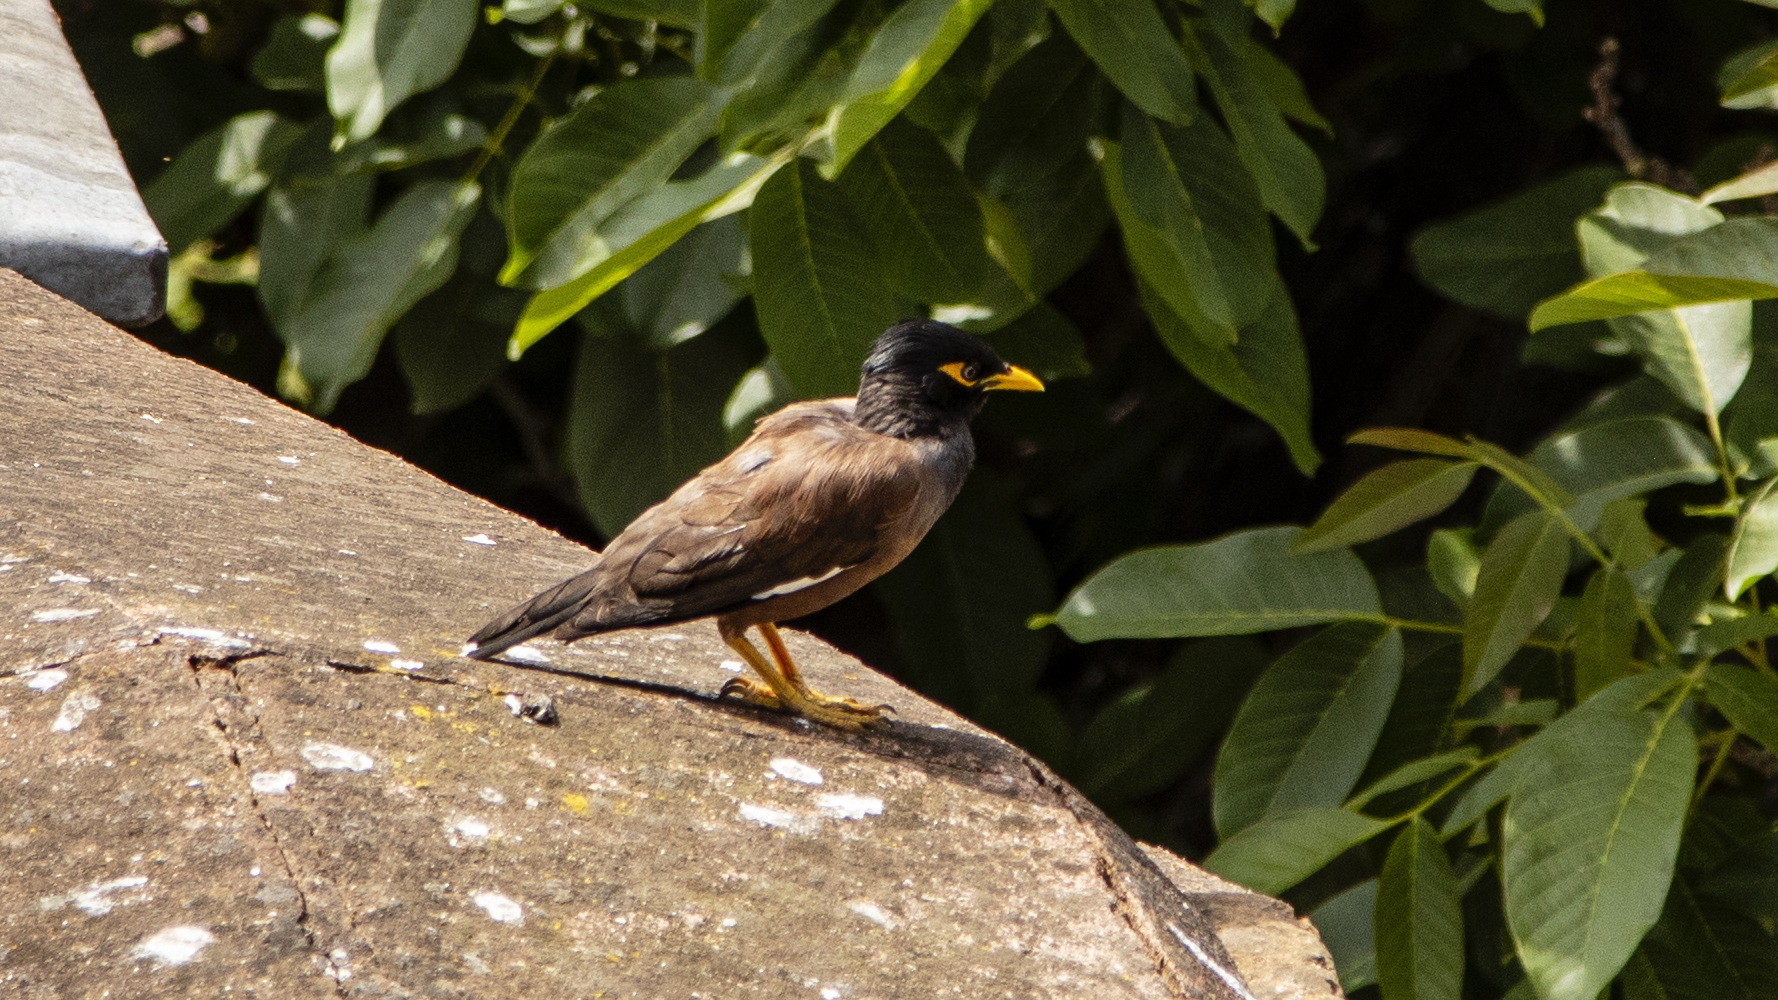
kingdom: Animalia
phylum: Chordata
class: Aves
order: Passeriformes
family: Sturnidae
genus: Acridotheres
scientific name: Acridotheres tristis
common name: Common myna
